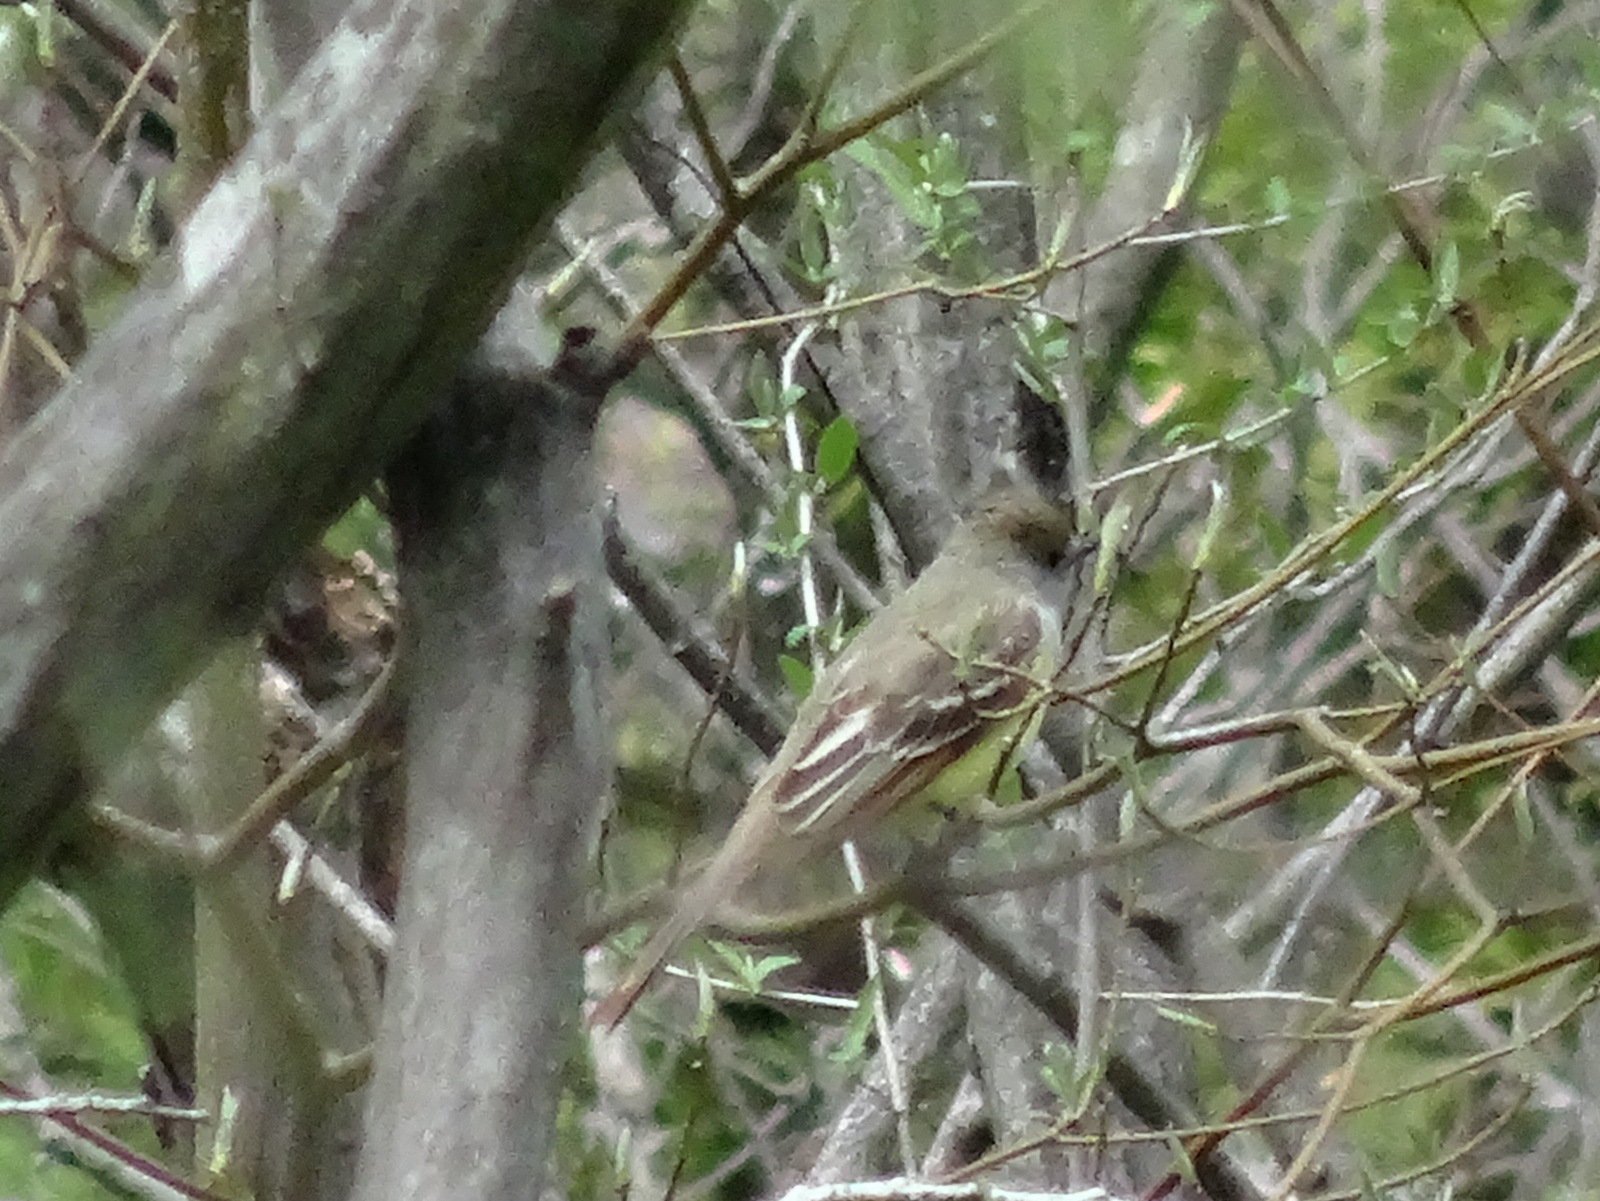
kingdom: Animalia
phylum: Chordata
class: Aves
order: Passeriformes
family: Tyrannidae
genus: Myiarchus
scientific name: Myiarchus crinitus
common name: Great crested flycatcher
